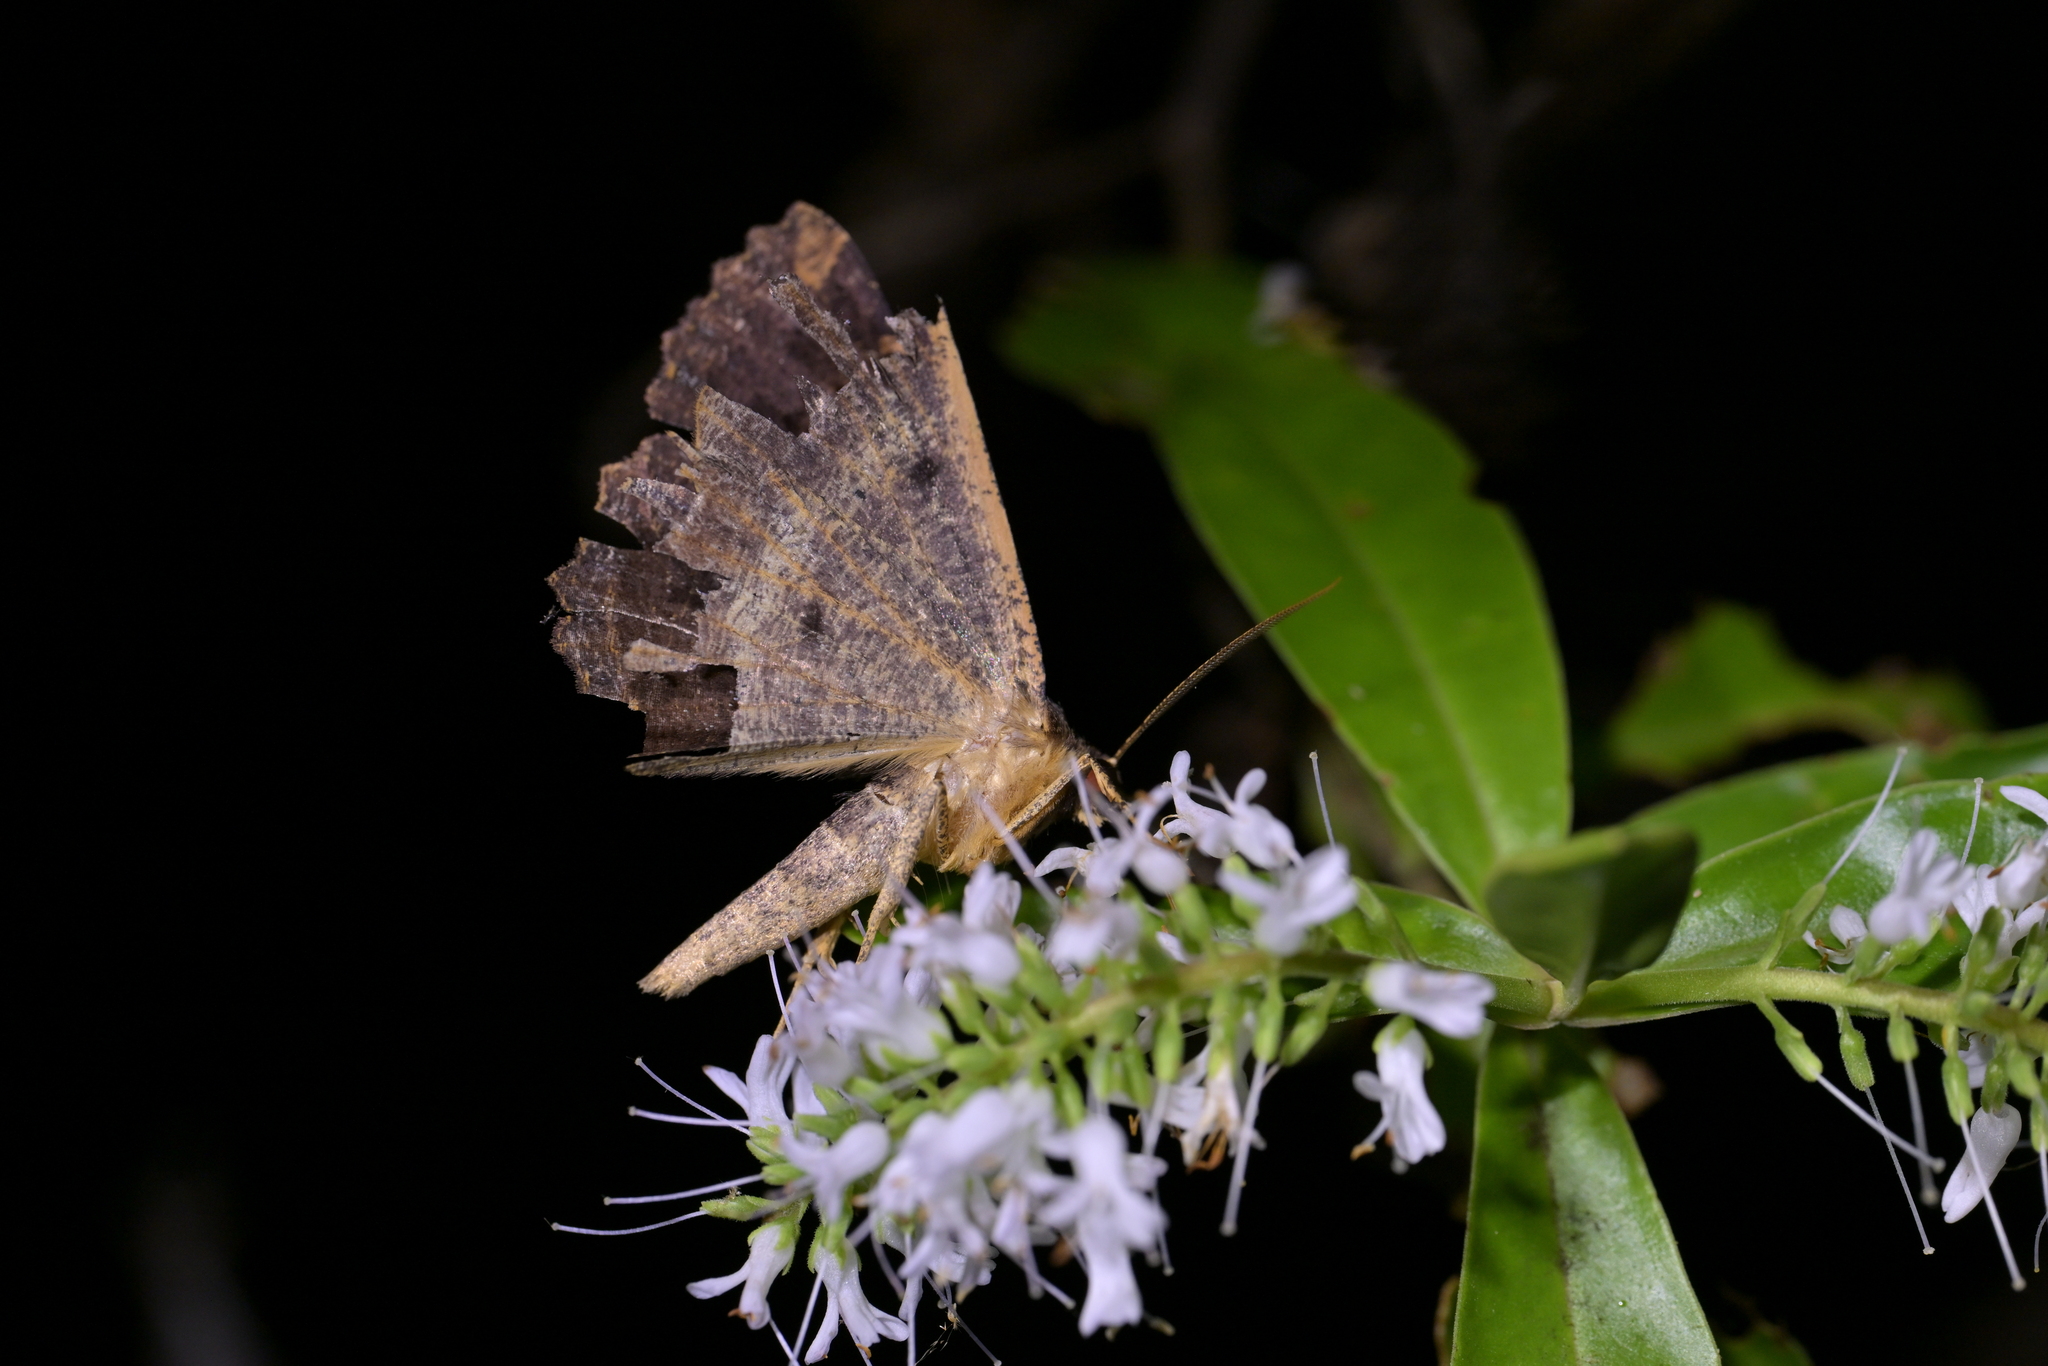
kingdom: Animalia
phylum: Arthropoda
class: Insecta
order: Lepidoptera
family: Geometridae
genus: Gellonia
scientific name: Gellonia dejectaria
